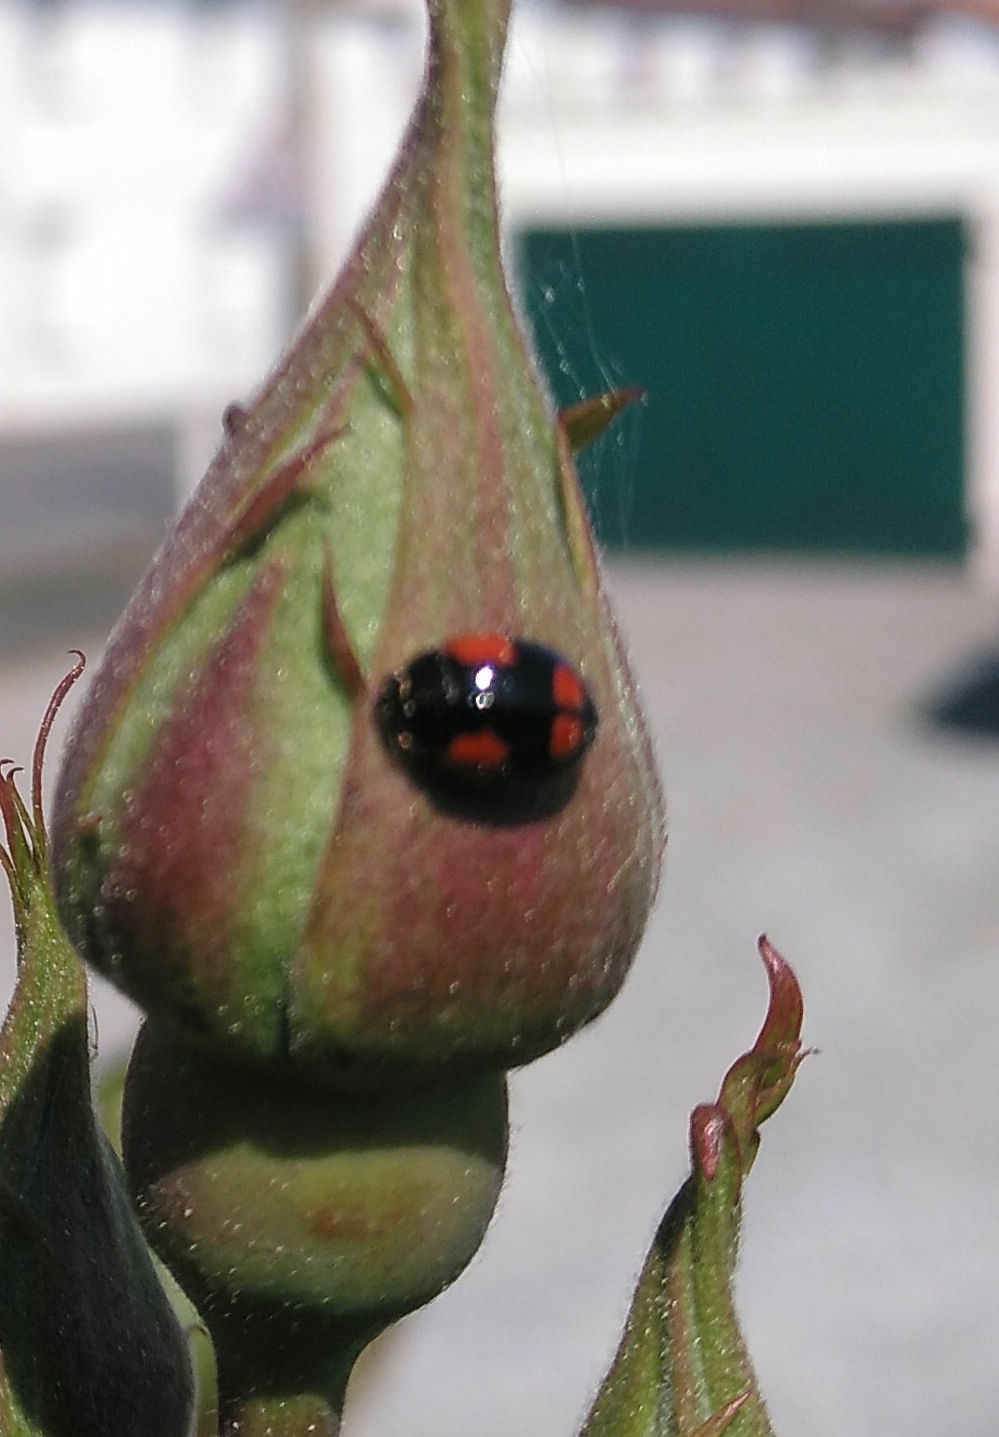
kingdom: Animalia
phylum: Arthropoda
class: Insecta
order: Coleoptera
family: Coccinellidae
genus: Adalia
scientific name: Adalia bipunctata
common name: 2-spot ladybird
